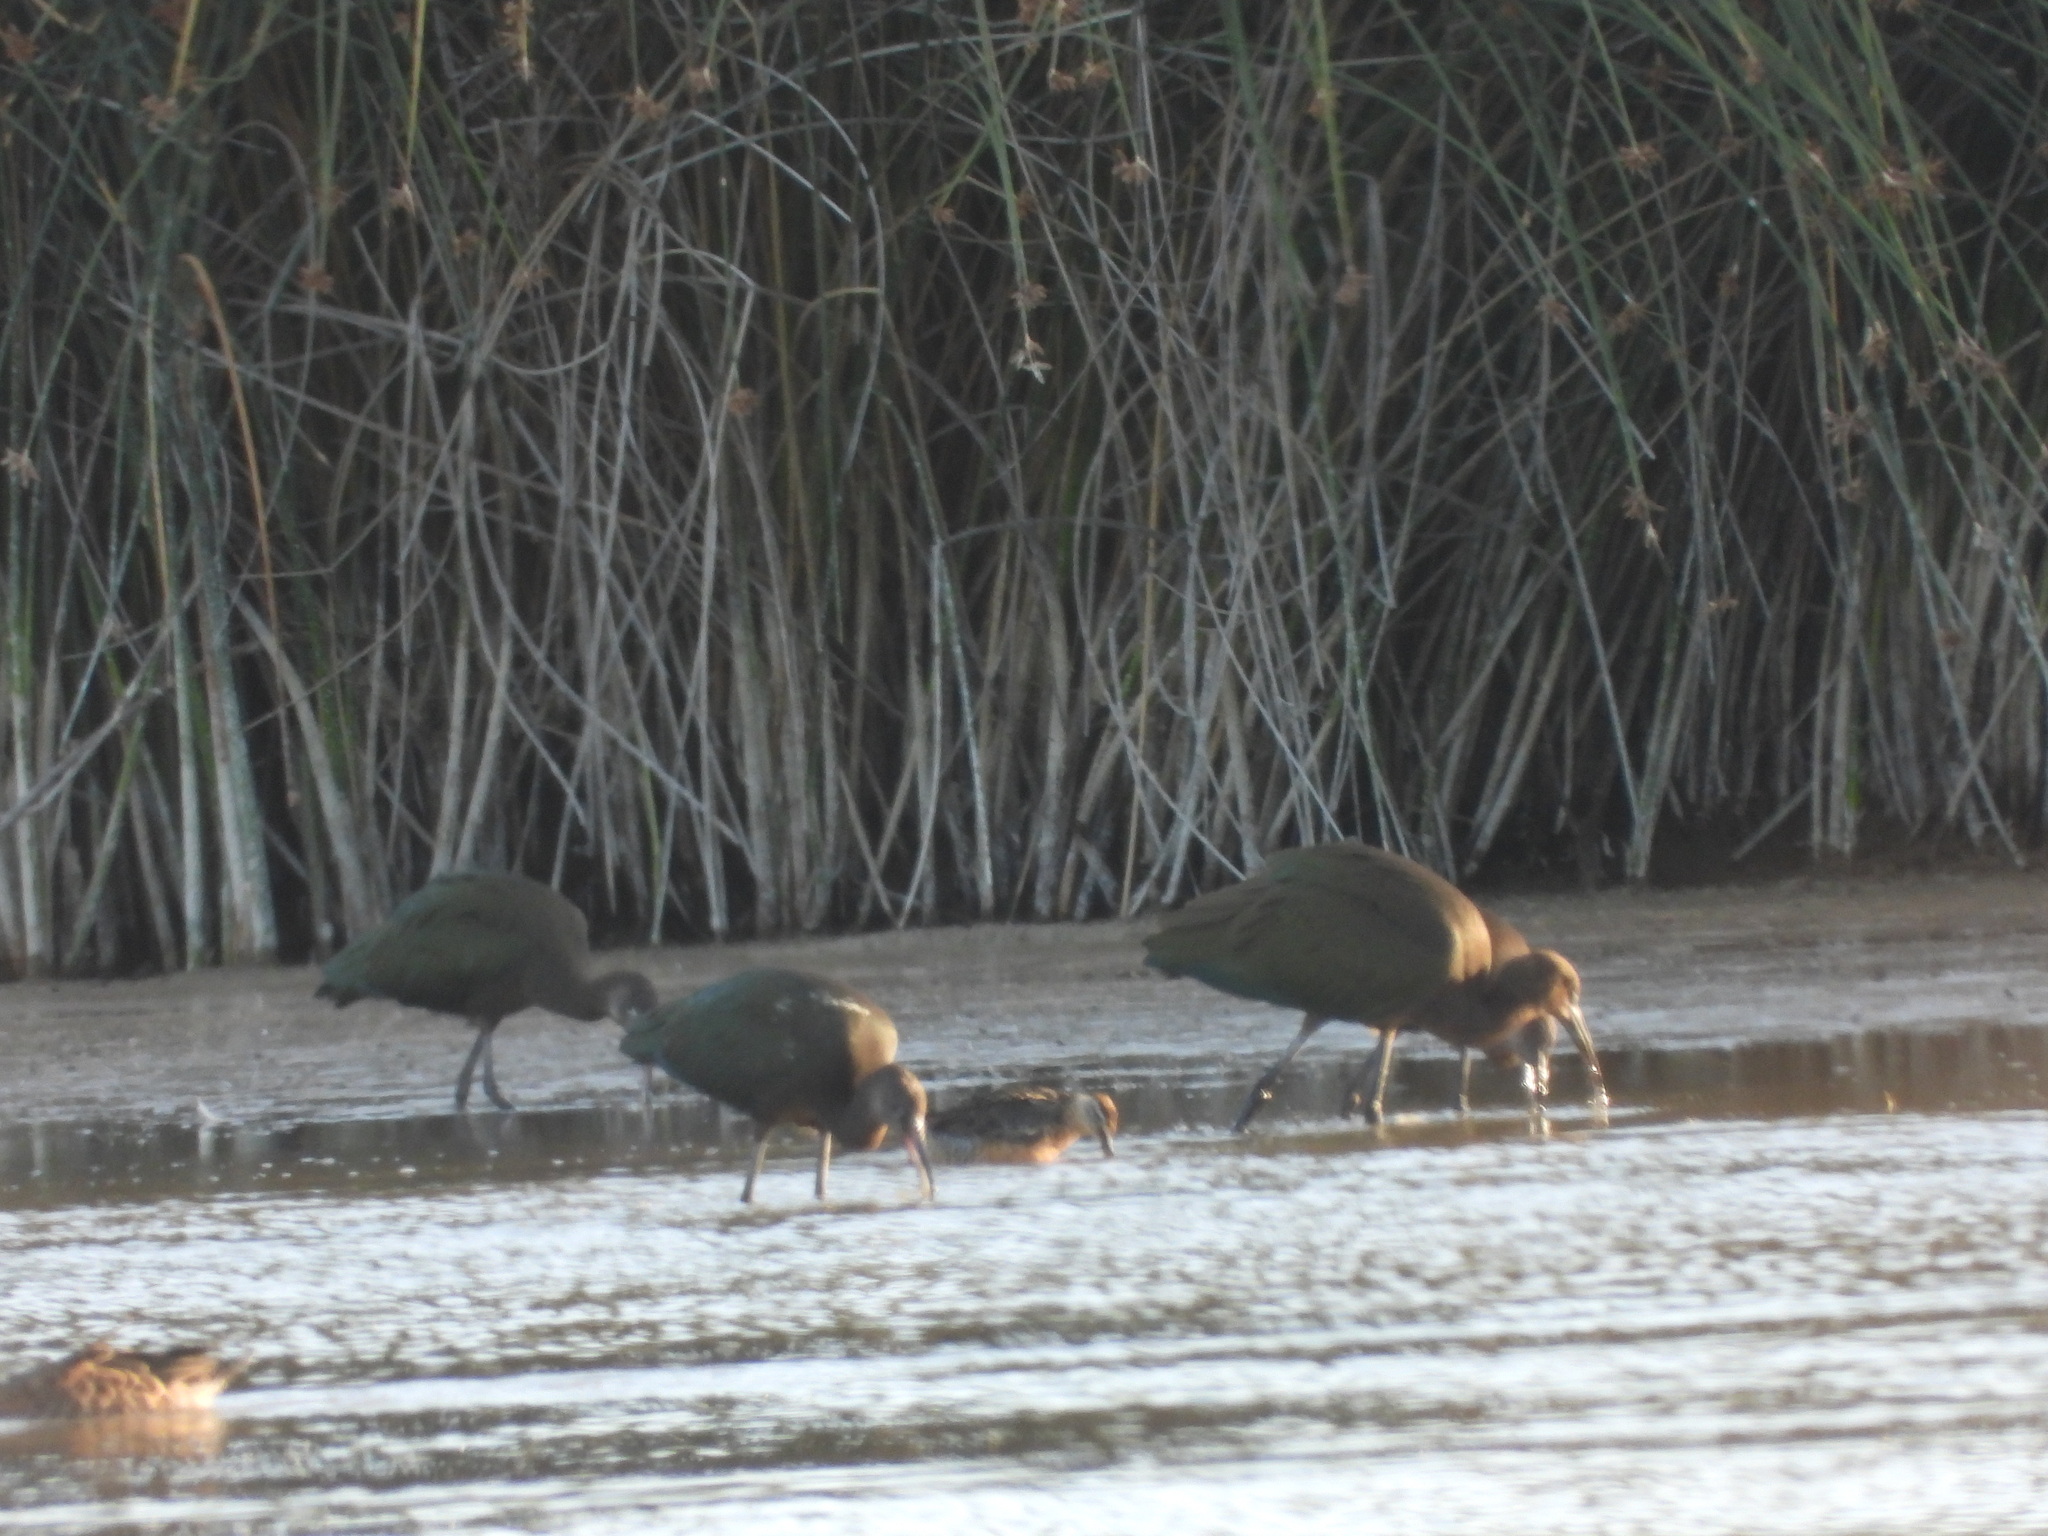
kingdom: Animalia
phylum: Chordata
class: Aves
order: Pelecaniformes
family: Threskiornithidae
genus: Plegadis
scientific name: Plegadis chihi
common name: White-faced ibis
